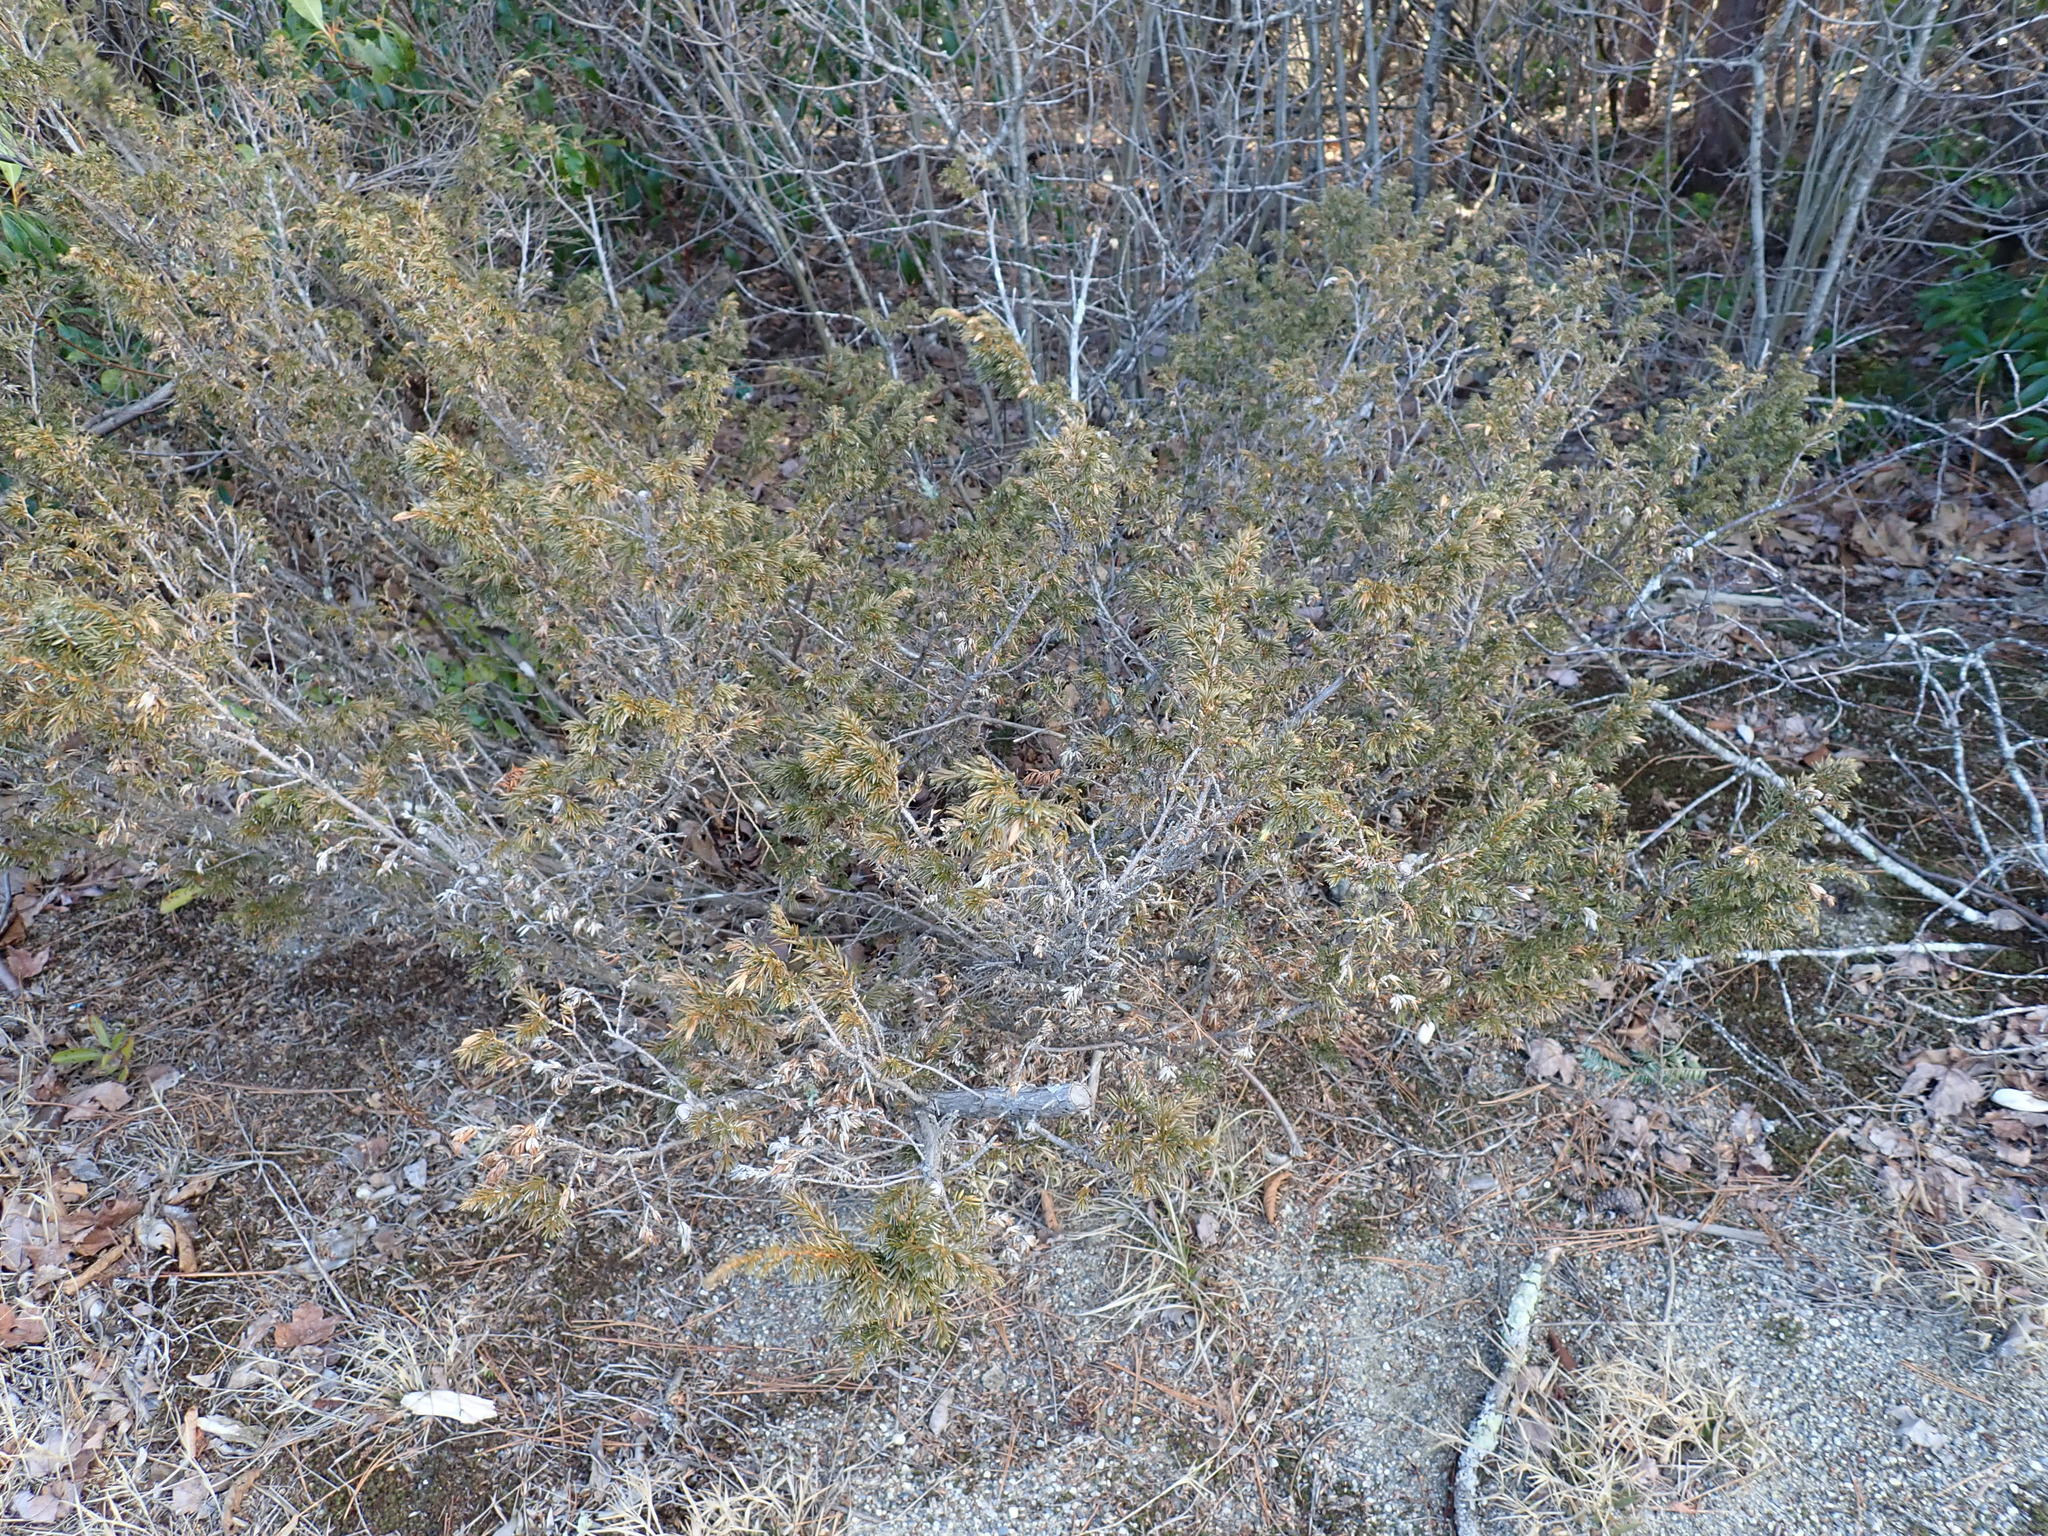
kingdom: Plantae
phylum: Tracheophyta
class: Pinopsida
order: Pinales
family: Cupressaceae
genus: Juniperus
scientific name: Juniperus communis
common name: Common juniper
